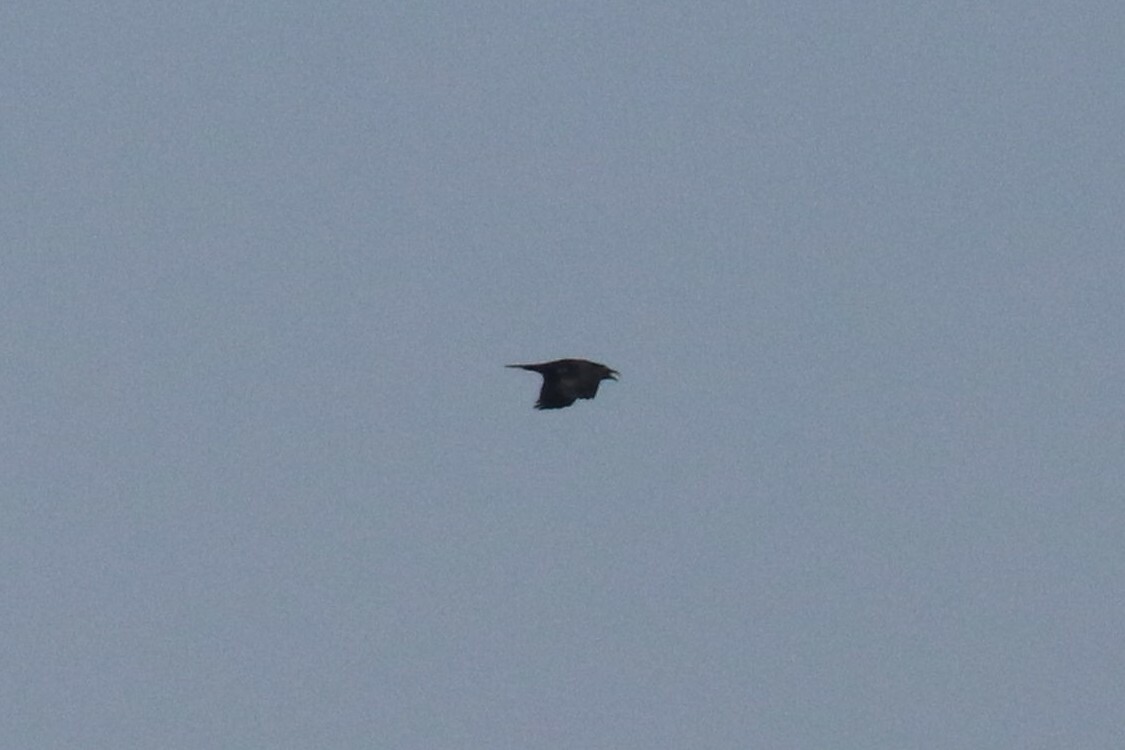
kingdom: Animalia
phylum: Chordata
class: Aves
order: Passeriformes
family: Corvidae
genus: Corvus
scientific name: Corvus corax
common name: Common raven
